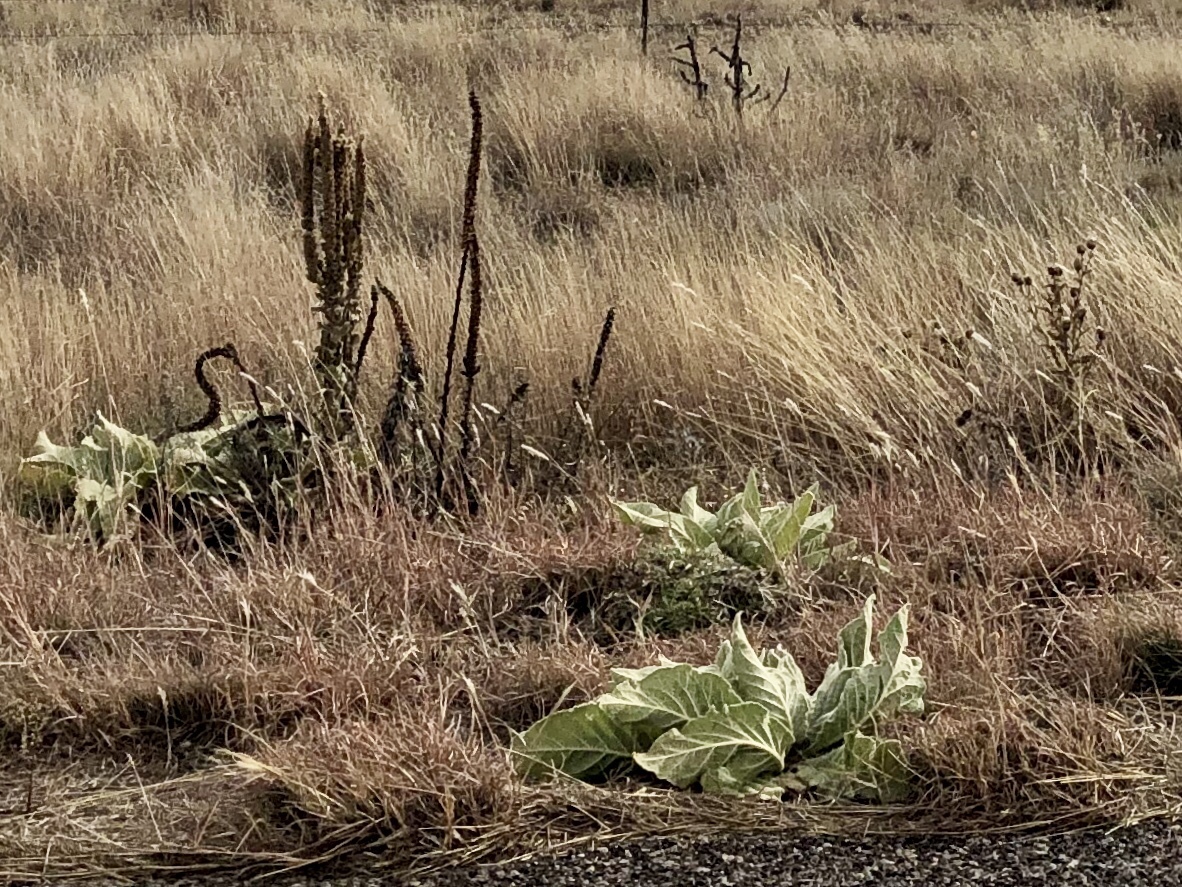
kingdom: Plantae
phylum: Tracheophyta
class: Magnoliopsida
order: Lamiales
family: Scrophulariaceae
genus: Verbascum
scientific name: Verbascum thapsus
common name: Common mullein
